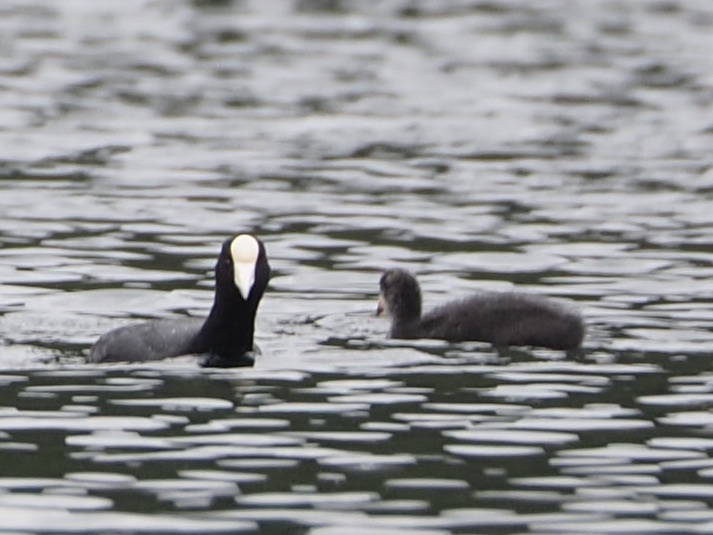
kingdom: Animalia
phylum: Chordata
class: Aves
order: Gruiformes
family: Rallidae
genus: Fulica
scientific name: Fulica ardesiaca
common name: Andean coot
